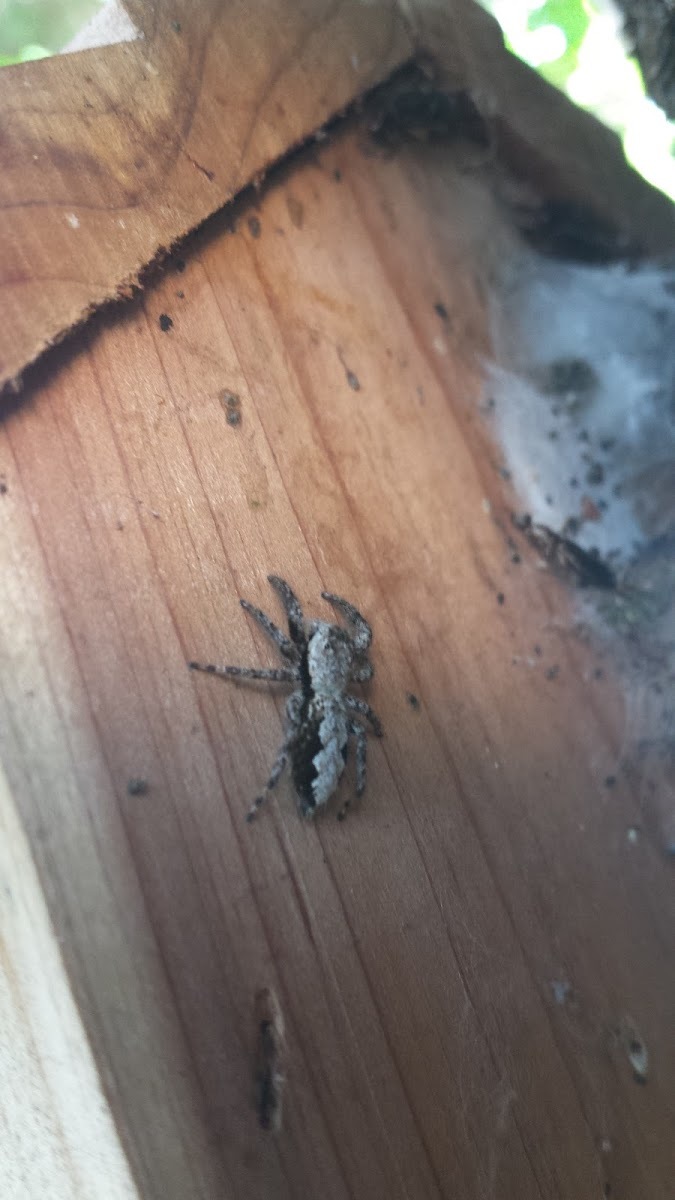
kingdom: Animalia
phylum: Arthropoda
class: Arachnida
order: Araneae
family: Salticidae
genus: Platycryptus
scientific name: Platycryptus undatus
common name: Tan jumping spider
